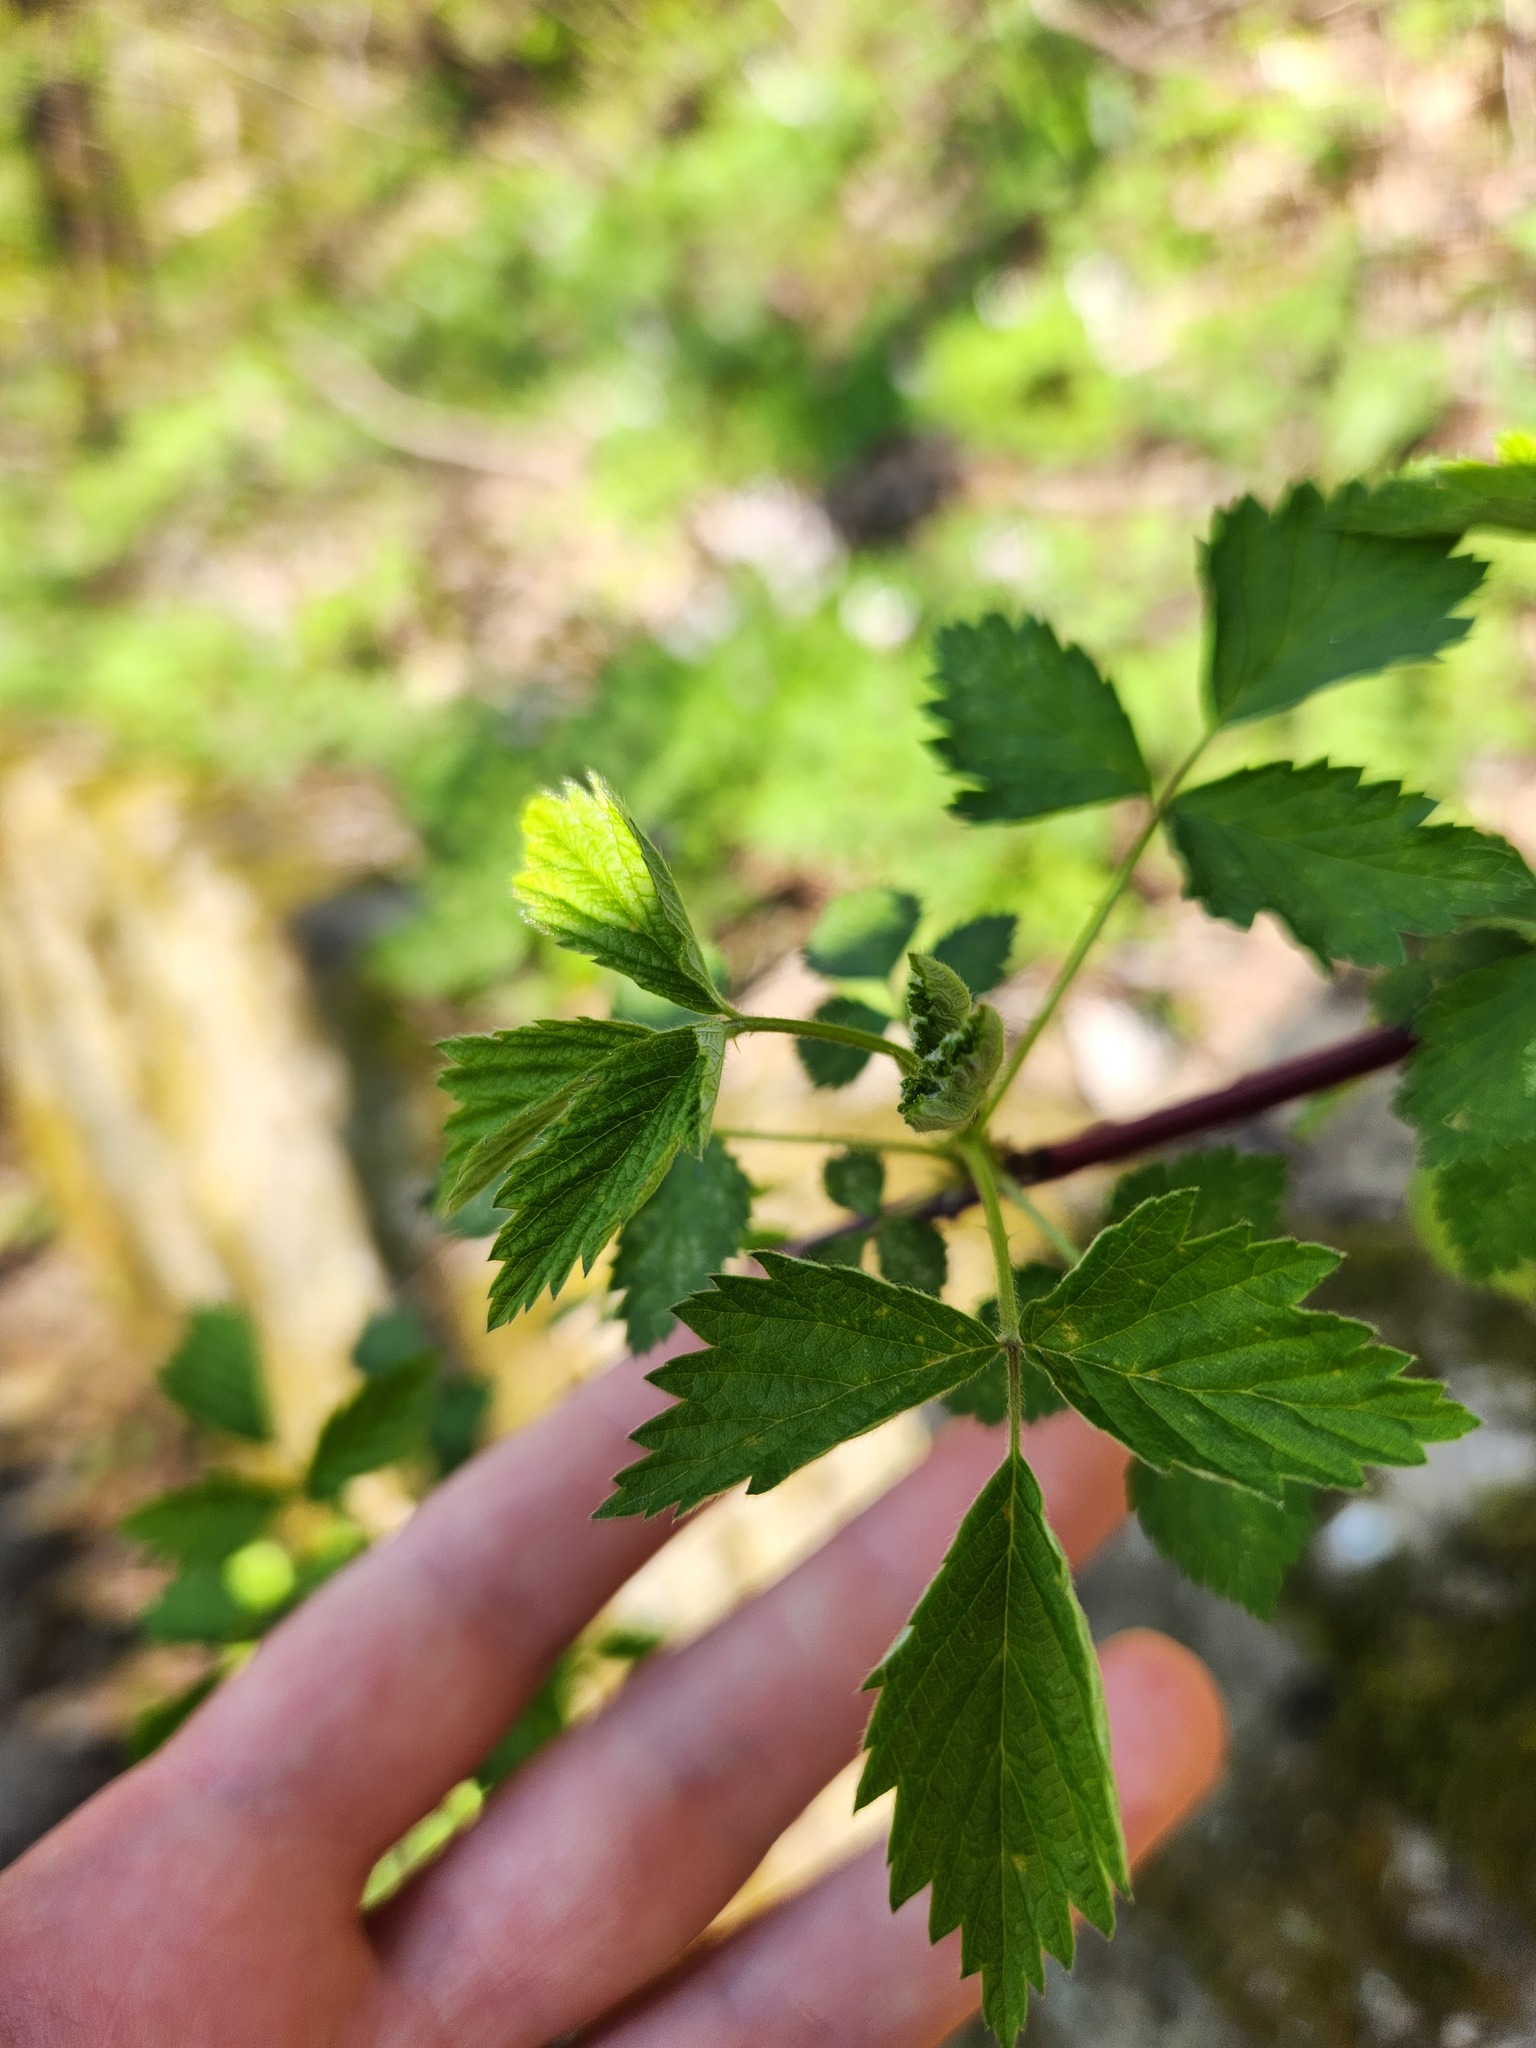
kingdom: Plantae
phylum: Tracheophyta
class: Magnoliopsida
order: Rosales
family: Rosaceae
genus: Rubus
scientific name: Rubus occidentalis
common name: Black raspberry
